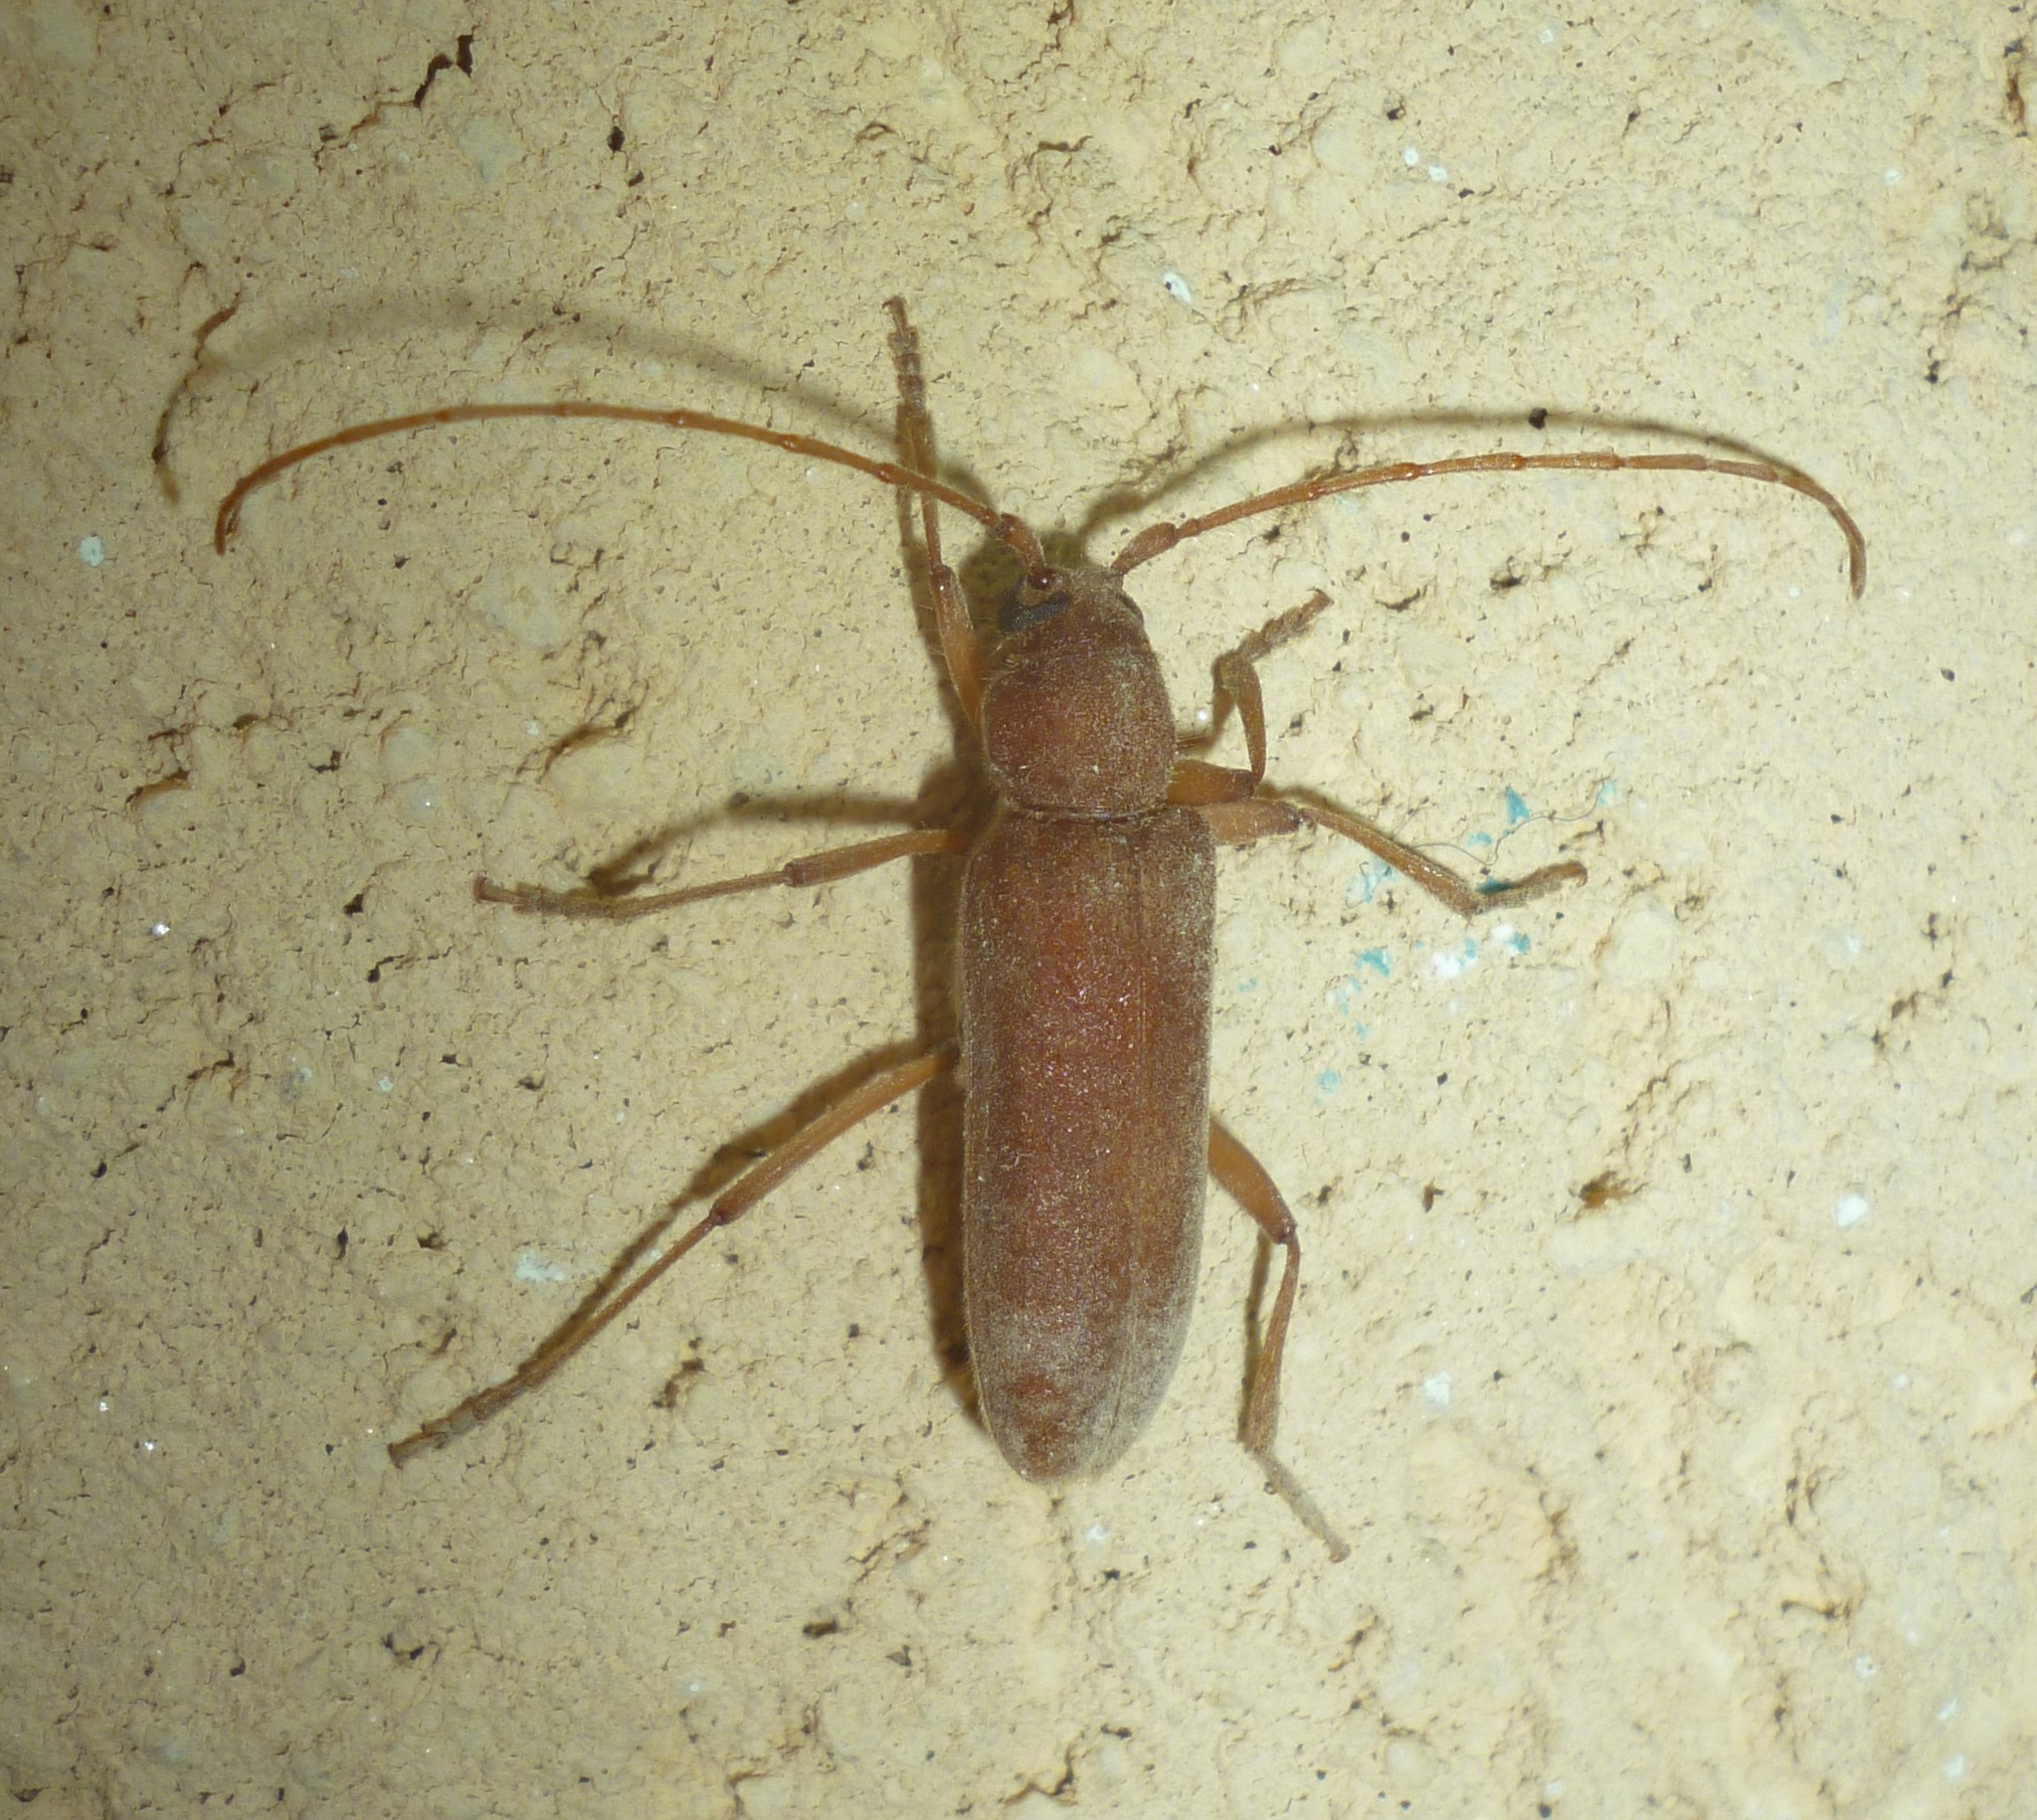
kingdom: Animalia
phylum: Arthropoda
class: Insecta
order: Coleoptera
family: Cerambycidae
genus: Stromatium
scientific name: Stromatium auratum
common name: Long-horned beetle
